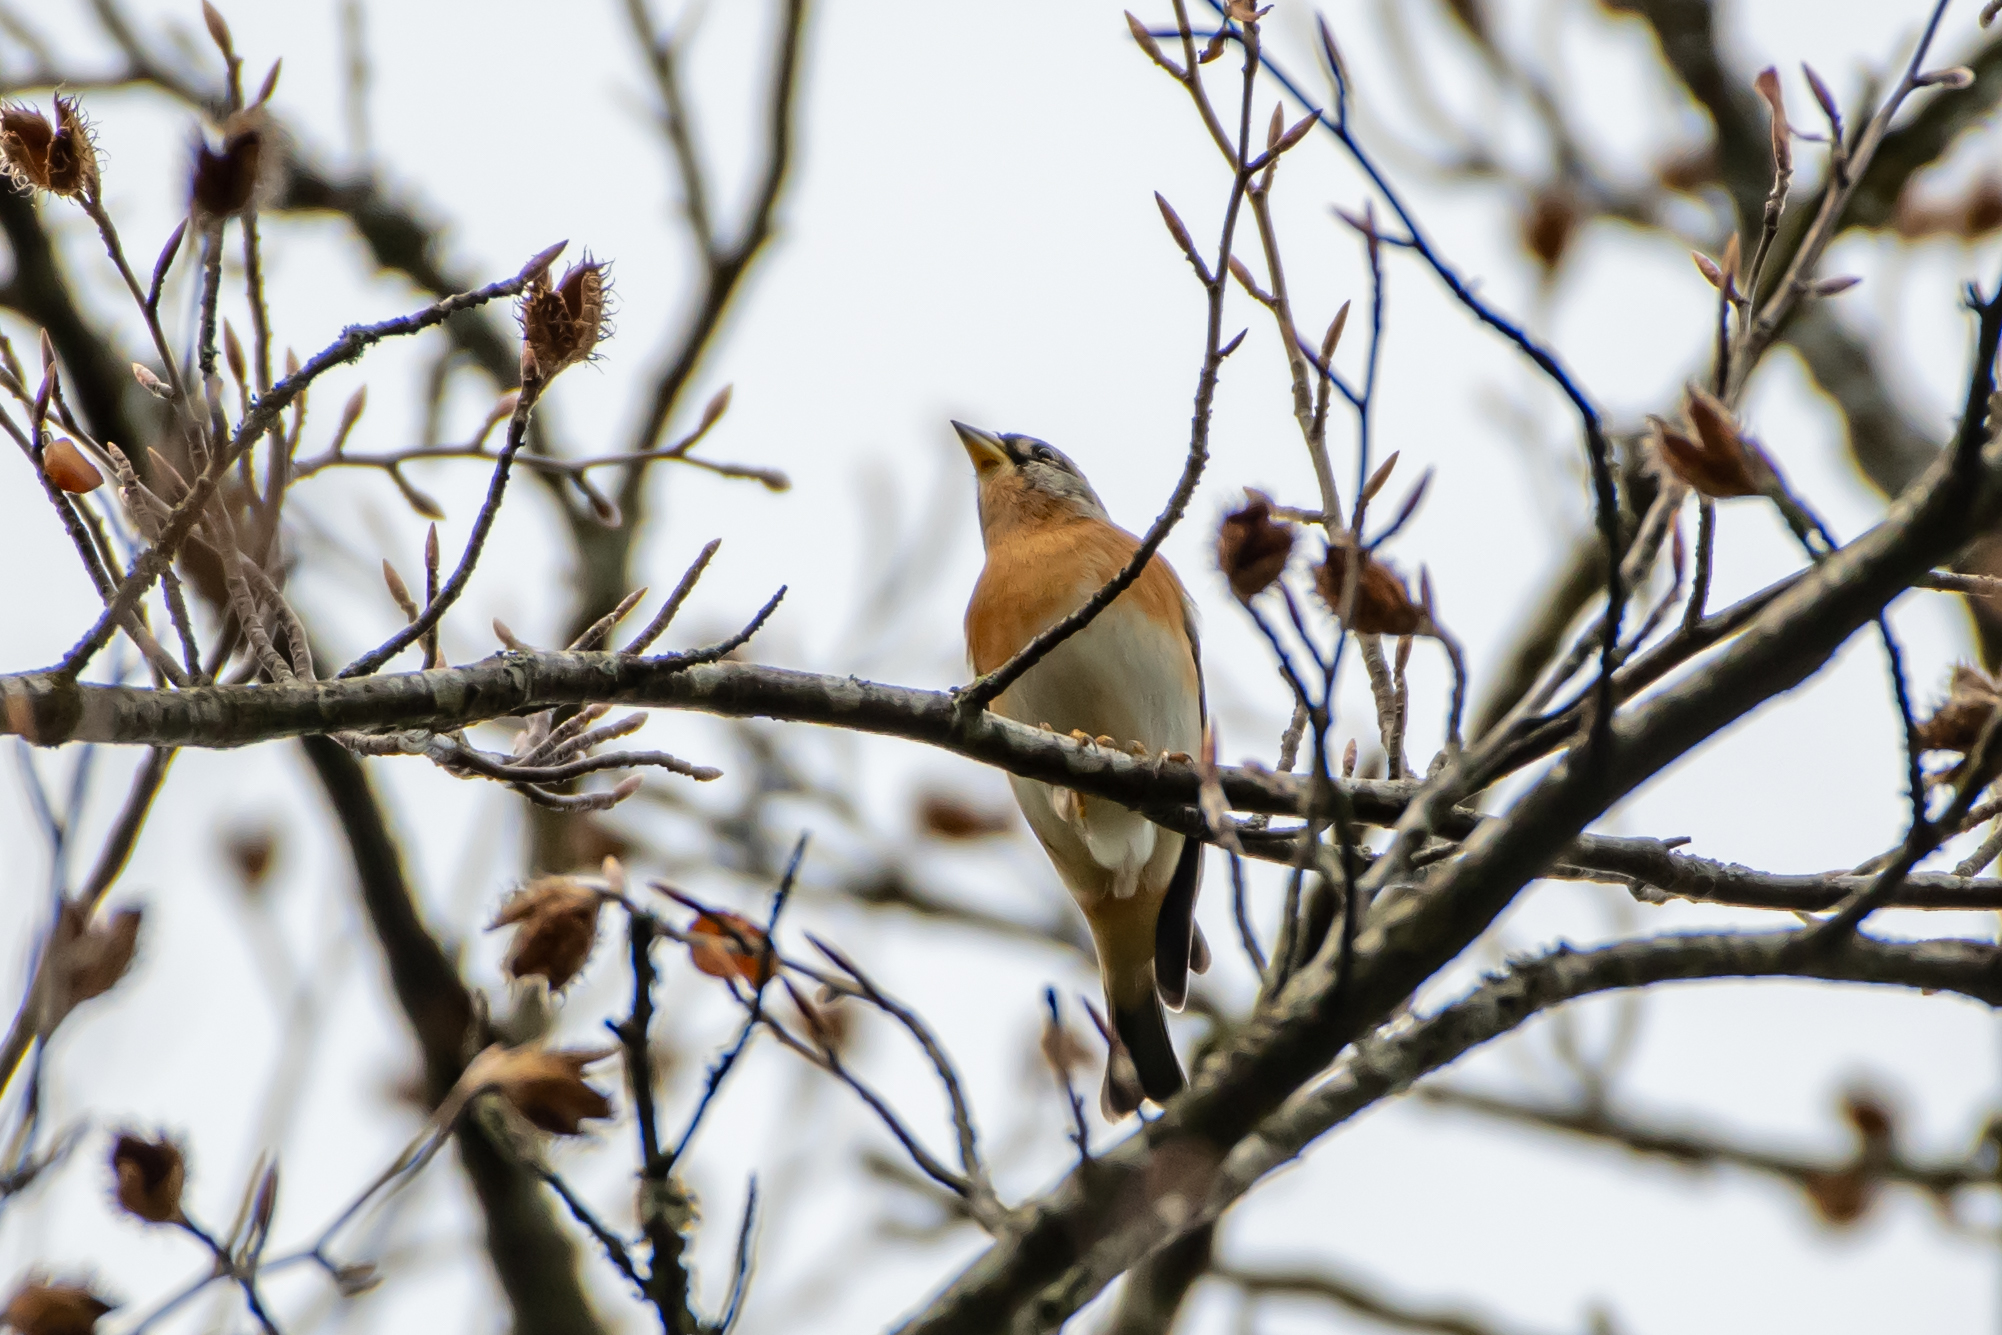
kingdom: Animalia
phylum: Chordata
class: Aves
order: Passeriformes
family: Fringillidae
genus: Fringilla
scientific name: Fringilla montifringilla
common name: Brambling
